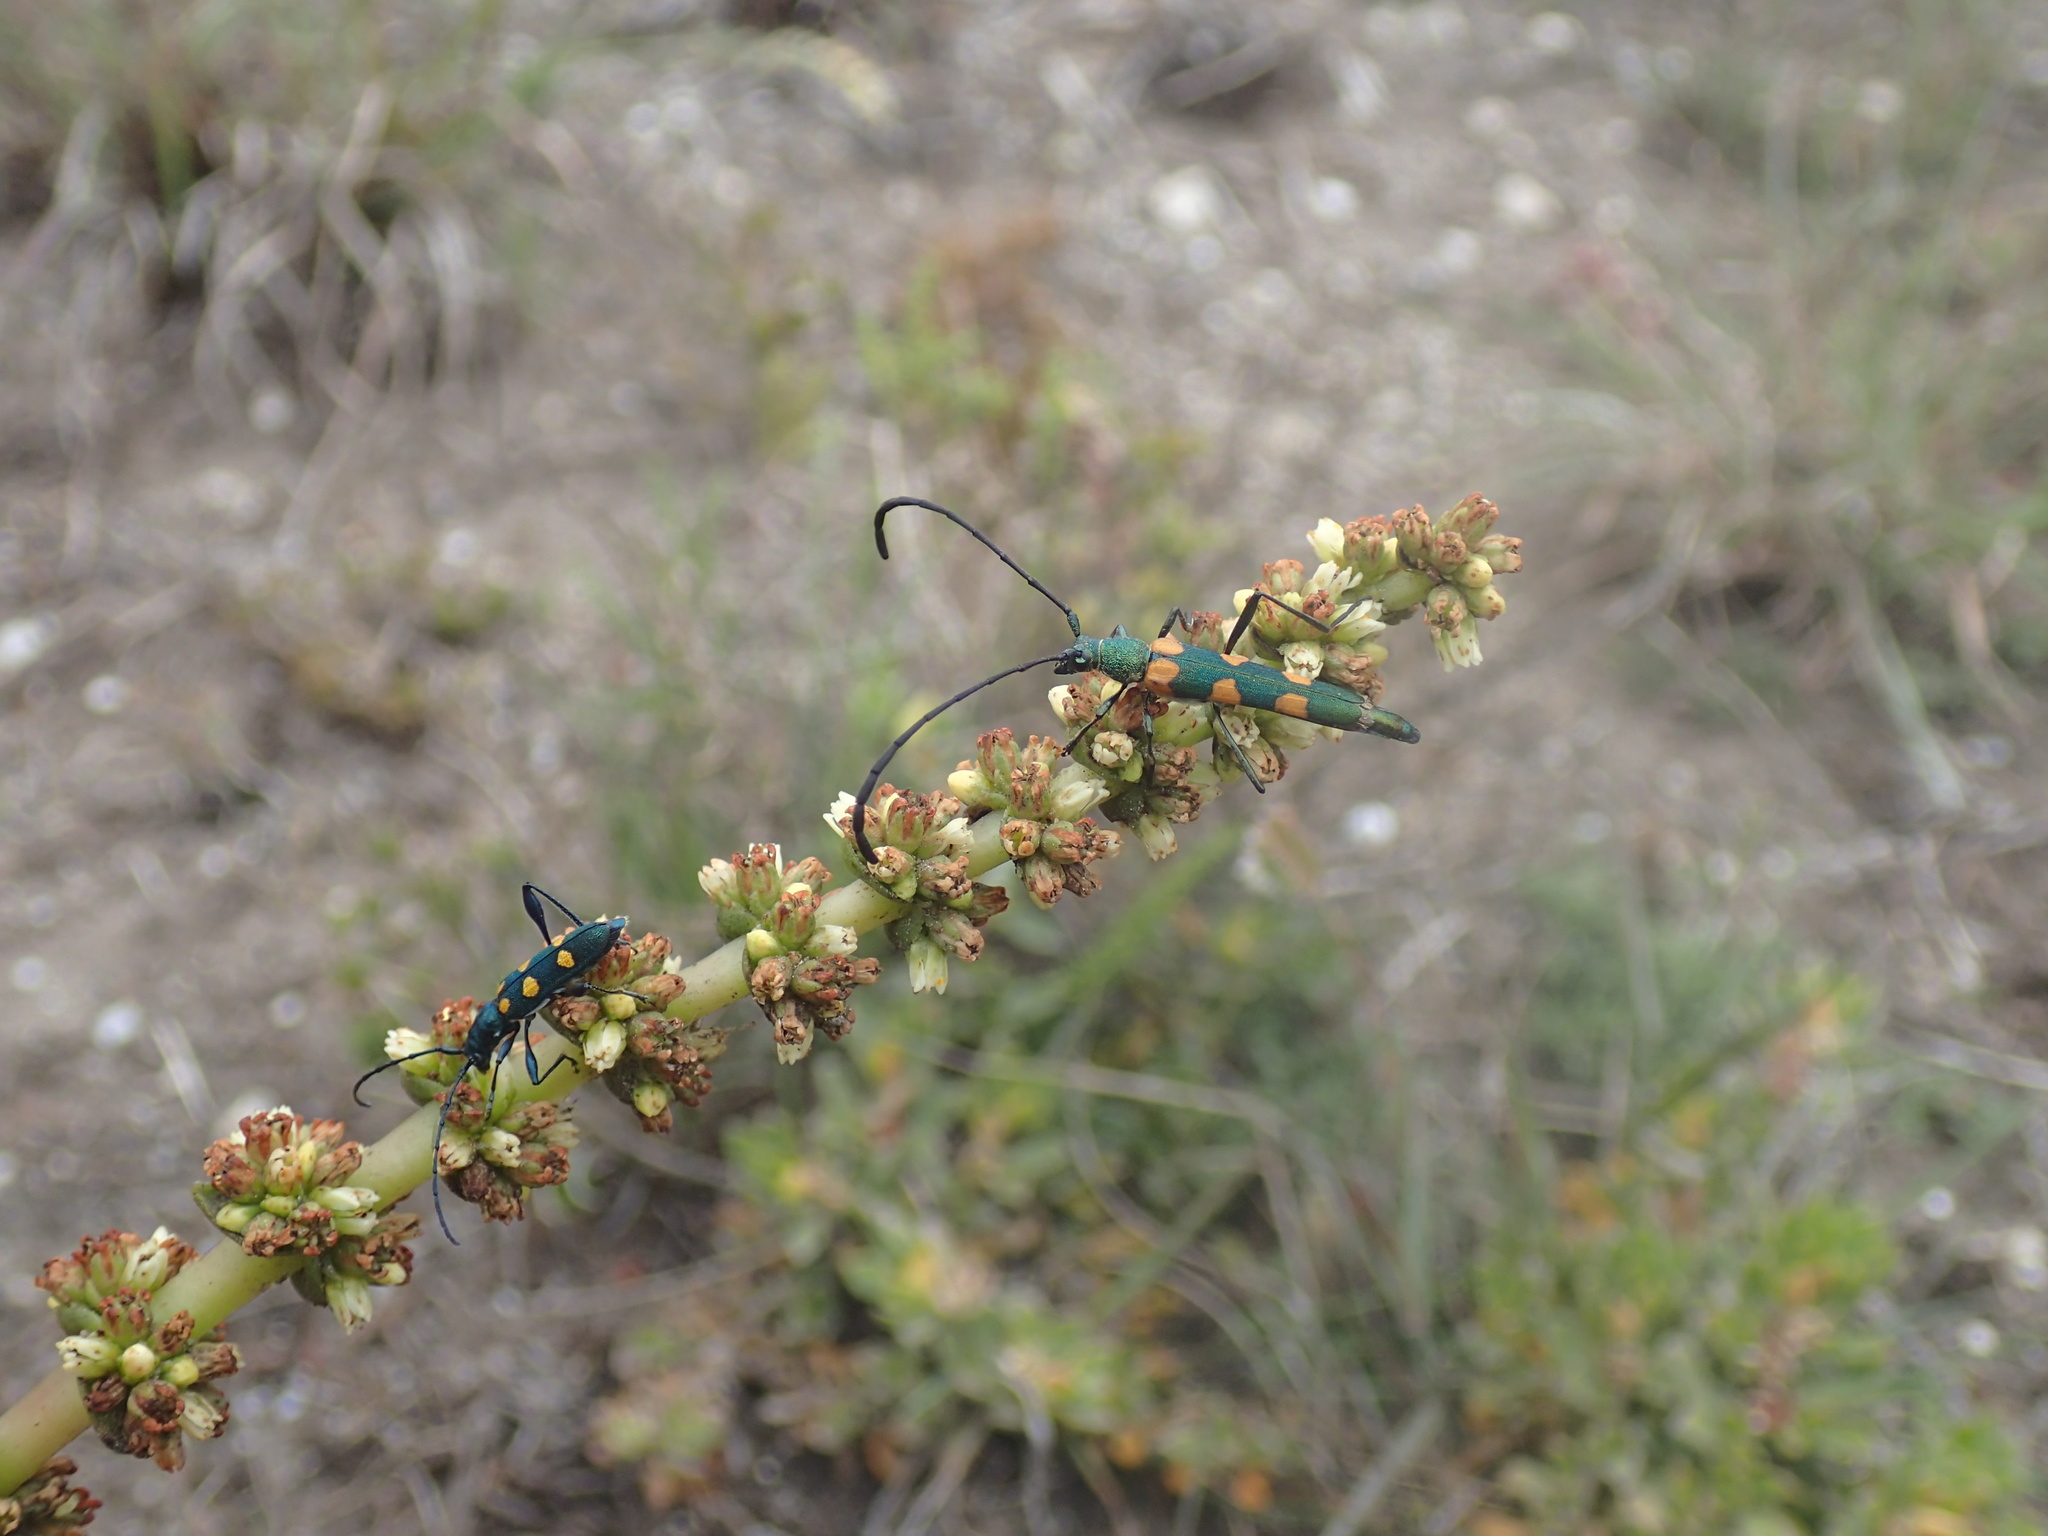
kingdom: Plantae
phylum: Tracheophyta
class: Magnoliopsida
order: Saxifragales
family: Crassulaceae
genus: Crassula
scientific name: Crassula capitella
